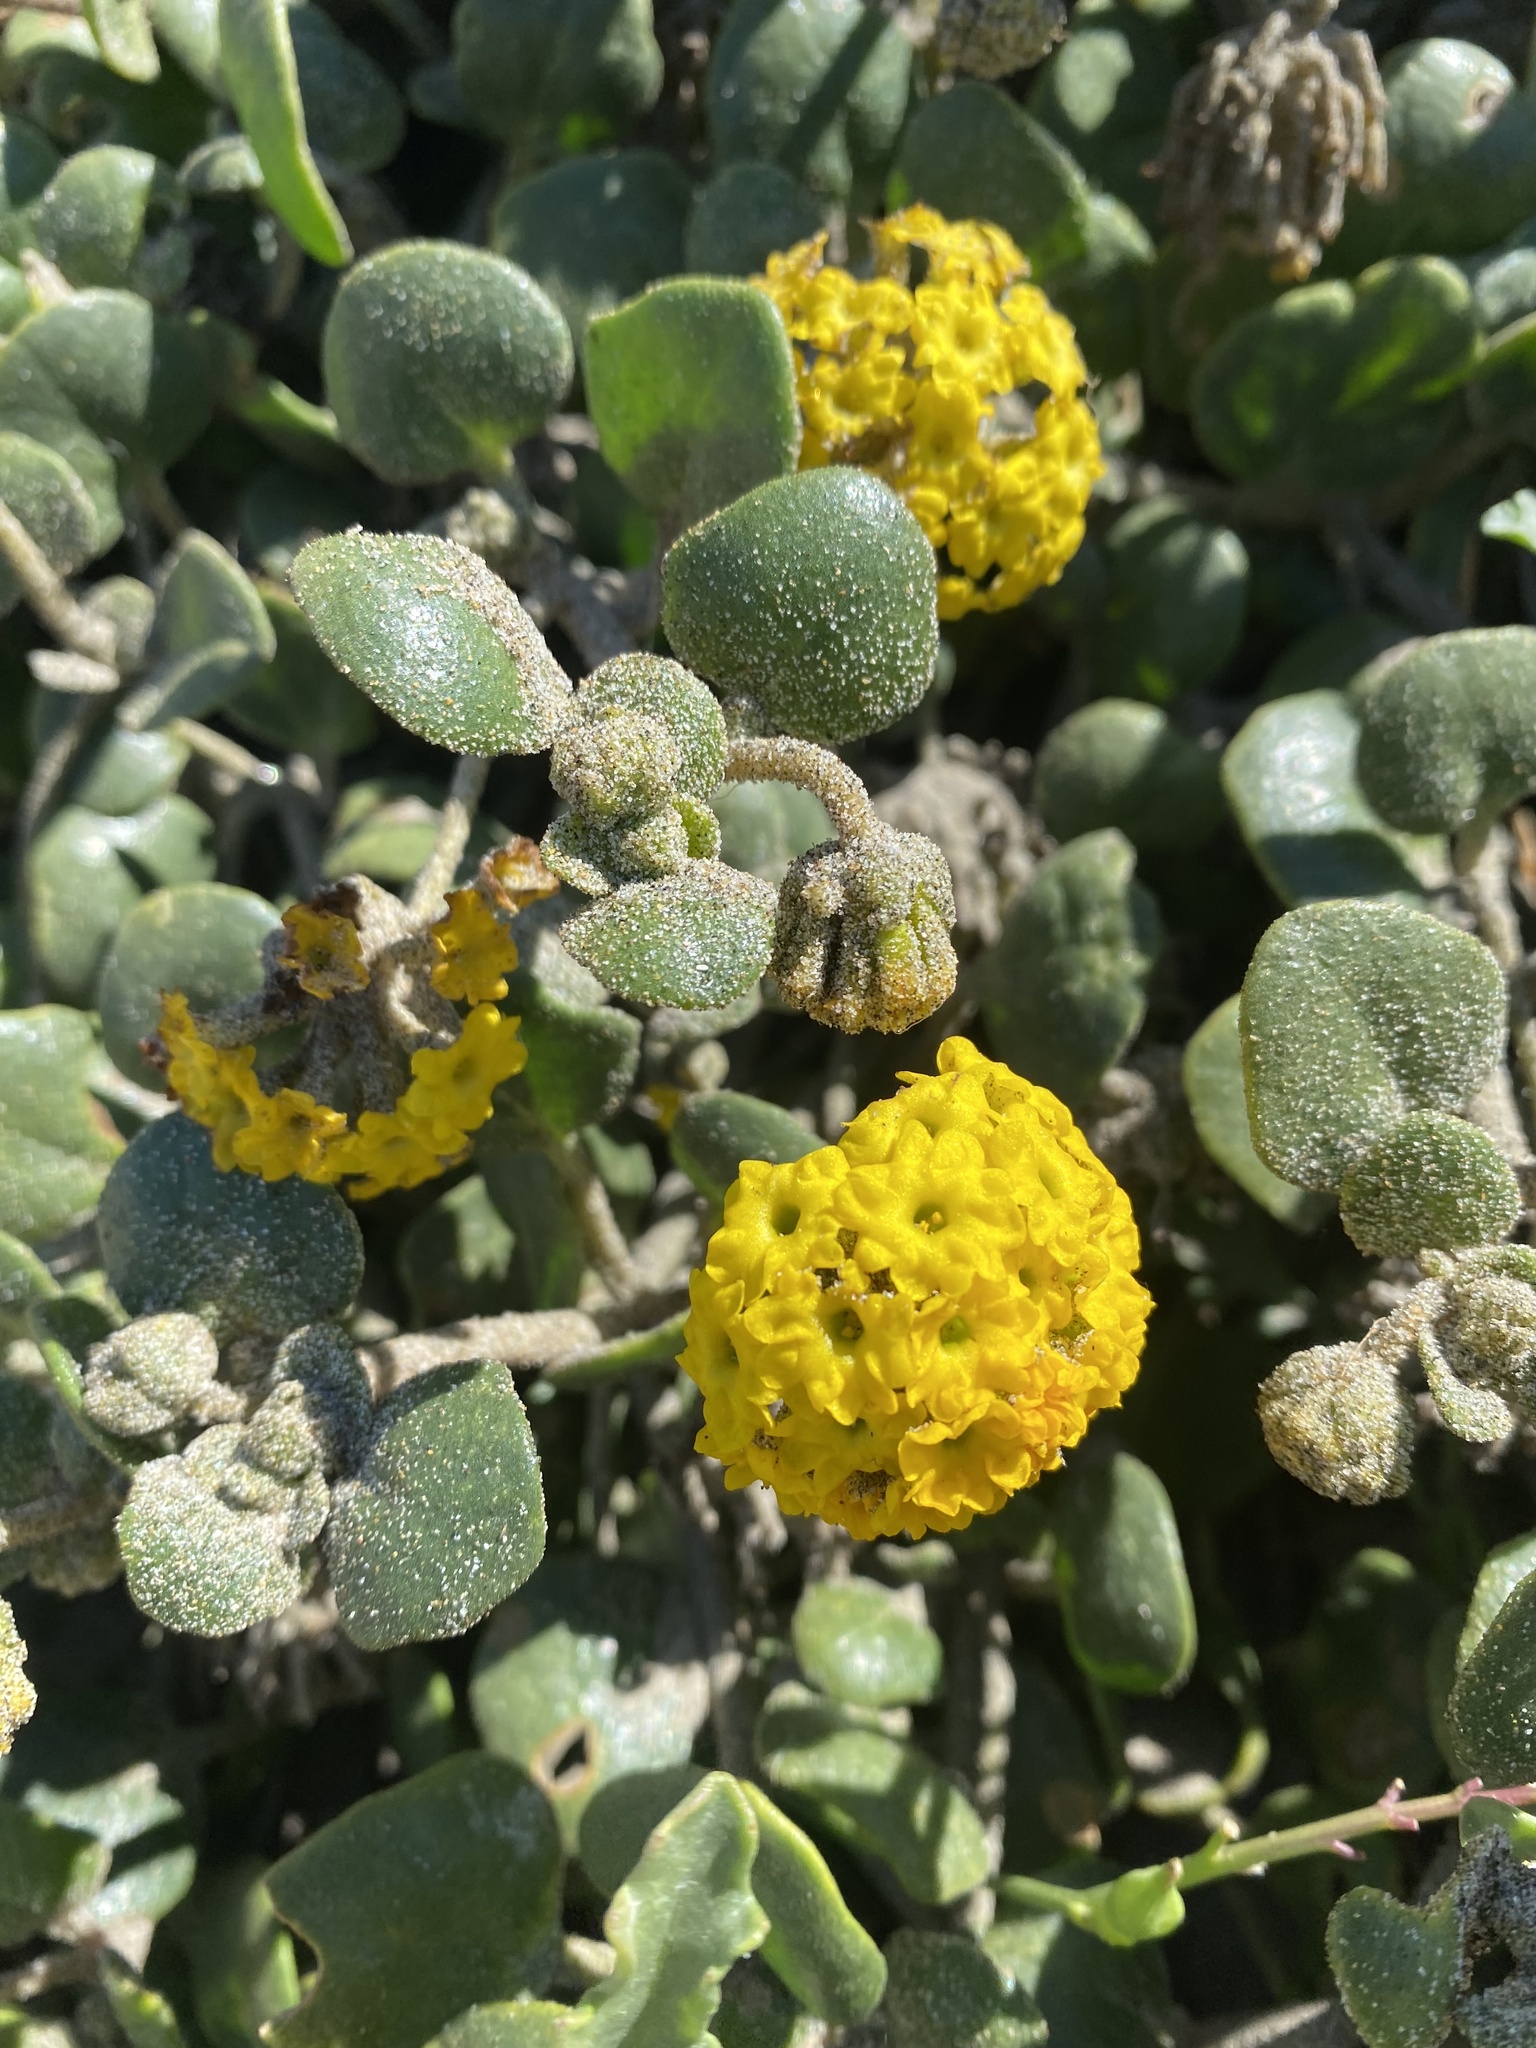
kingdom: Plantae
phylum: Tracheophyta
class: Magnoliopsida
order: Caryophyllales
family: Nyctaginaceae
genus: Abronia
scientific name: Abronia latifolia
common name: Yellow sand-verbena
